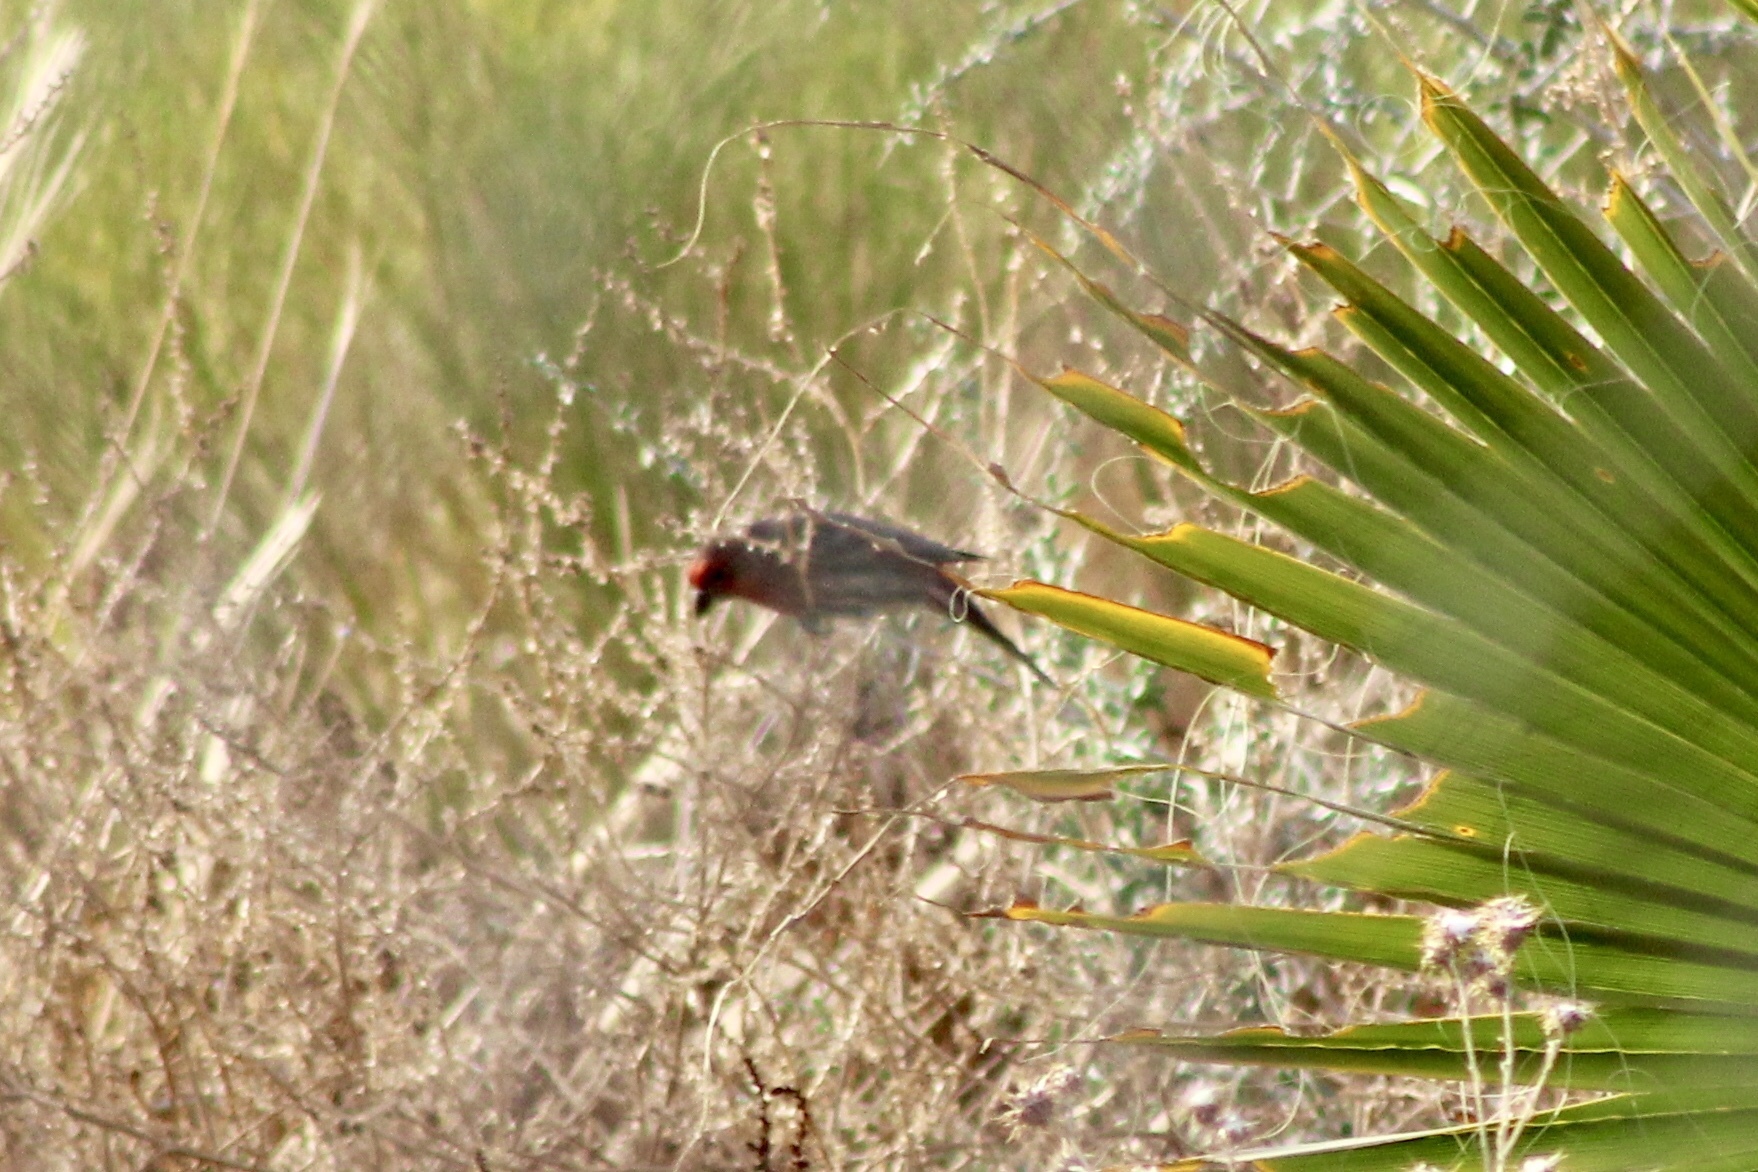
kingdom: Animalia
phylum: Chordata
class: Aves
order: Passeriformes
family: Fringillidae
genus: Haemorhous
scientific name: Haemorhous mexicanus
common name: House finch
